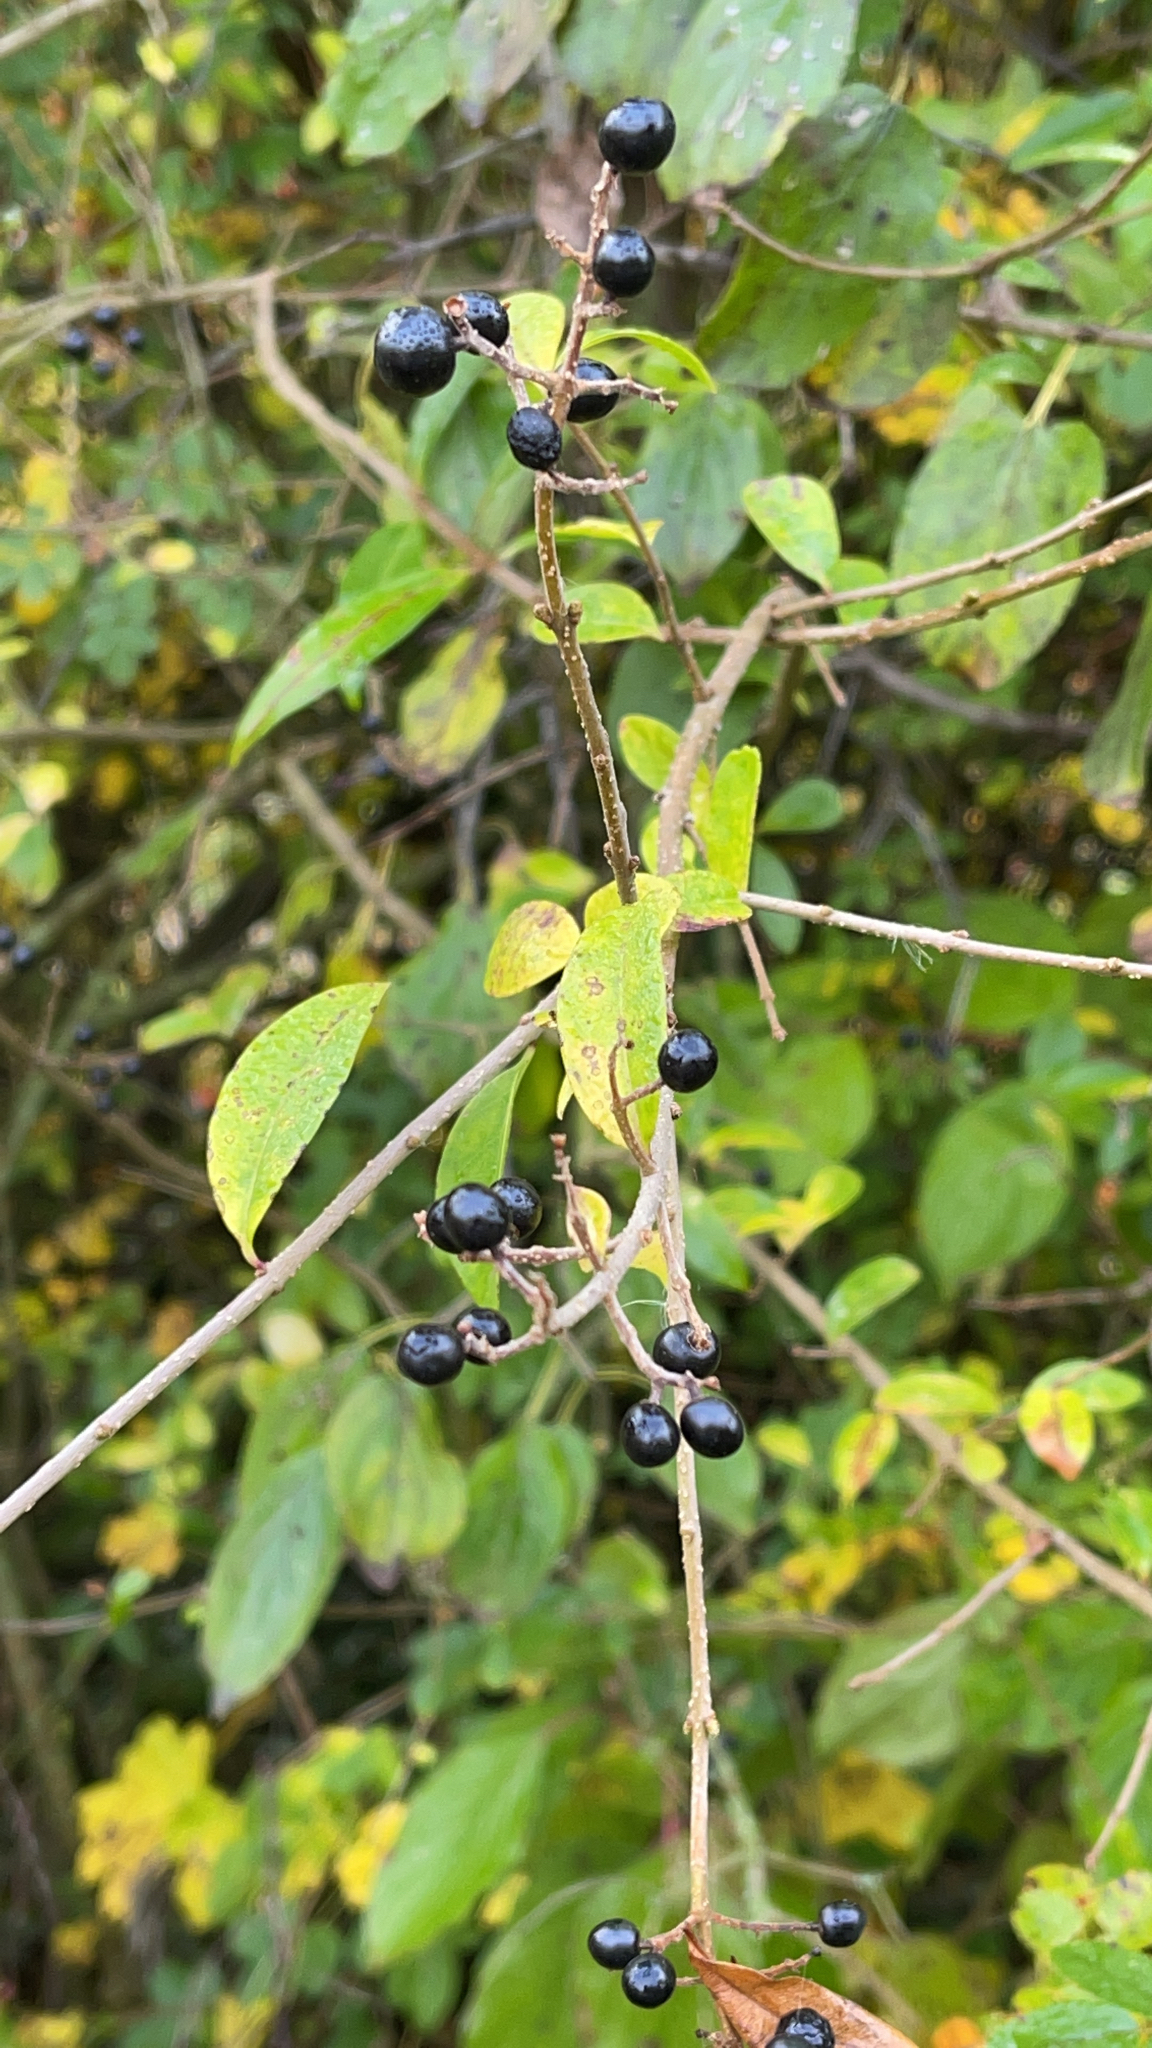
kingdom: Plantae
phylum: Tracheophyta
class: Magnoliopsida
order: Lamiales
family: Oleaceae
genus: Ligustrum
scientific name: Ligustrum vulgare
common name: Wild privet
